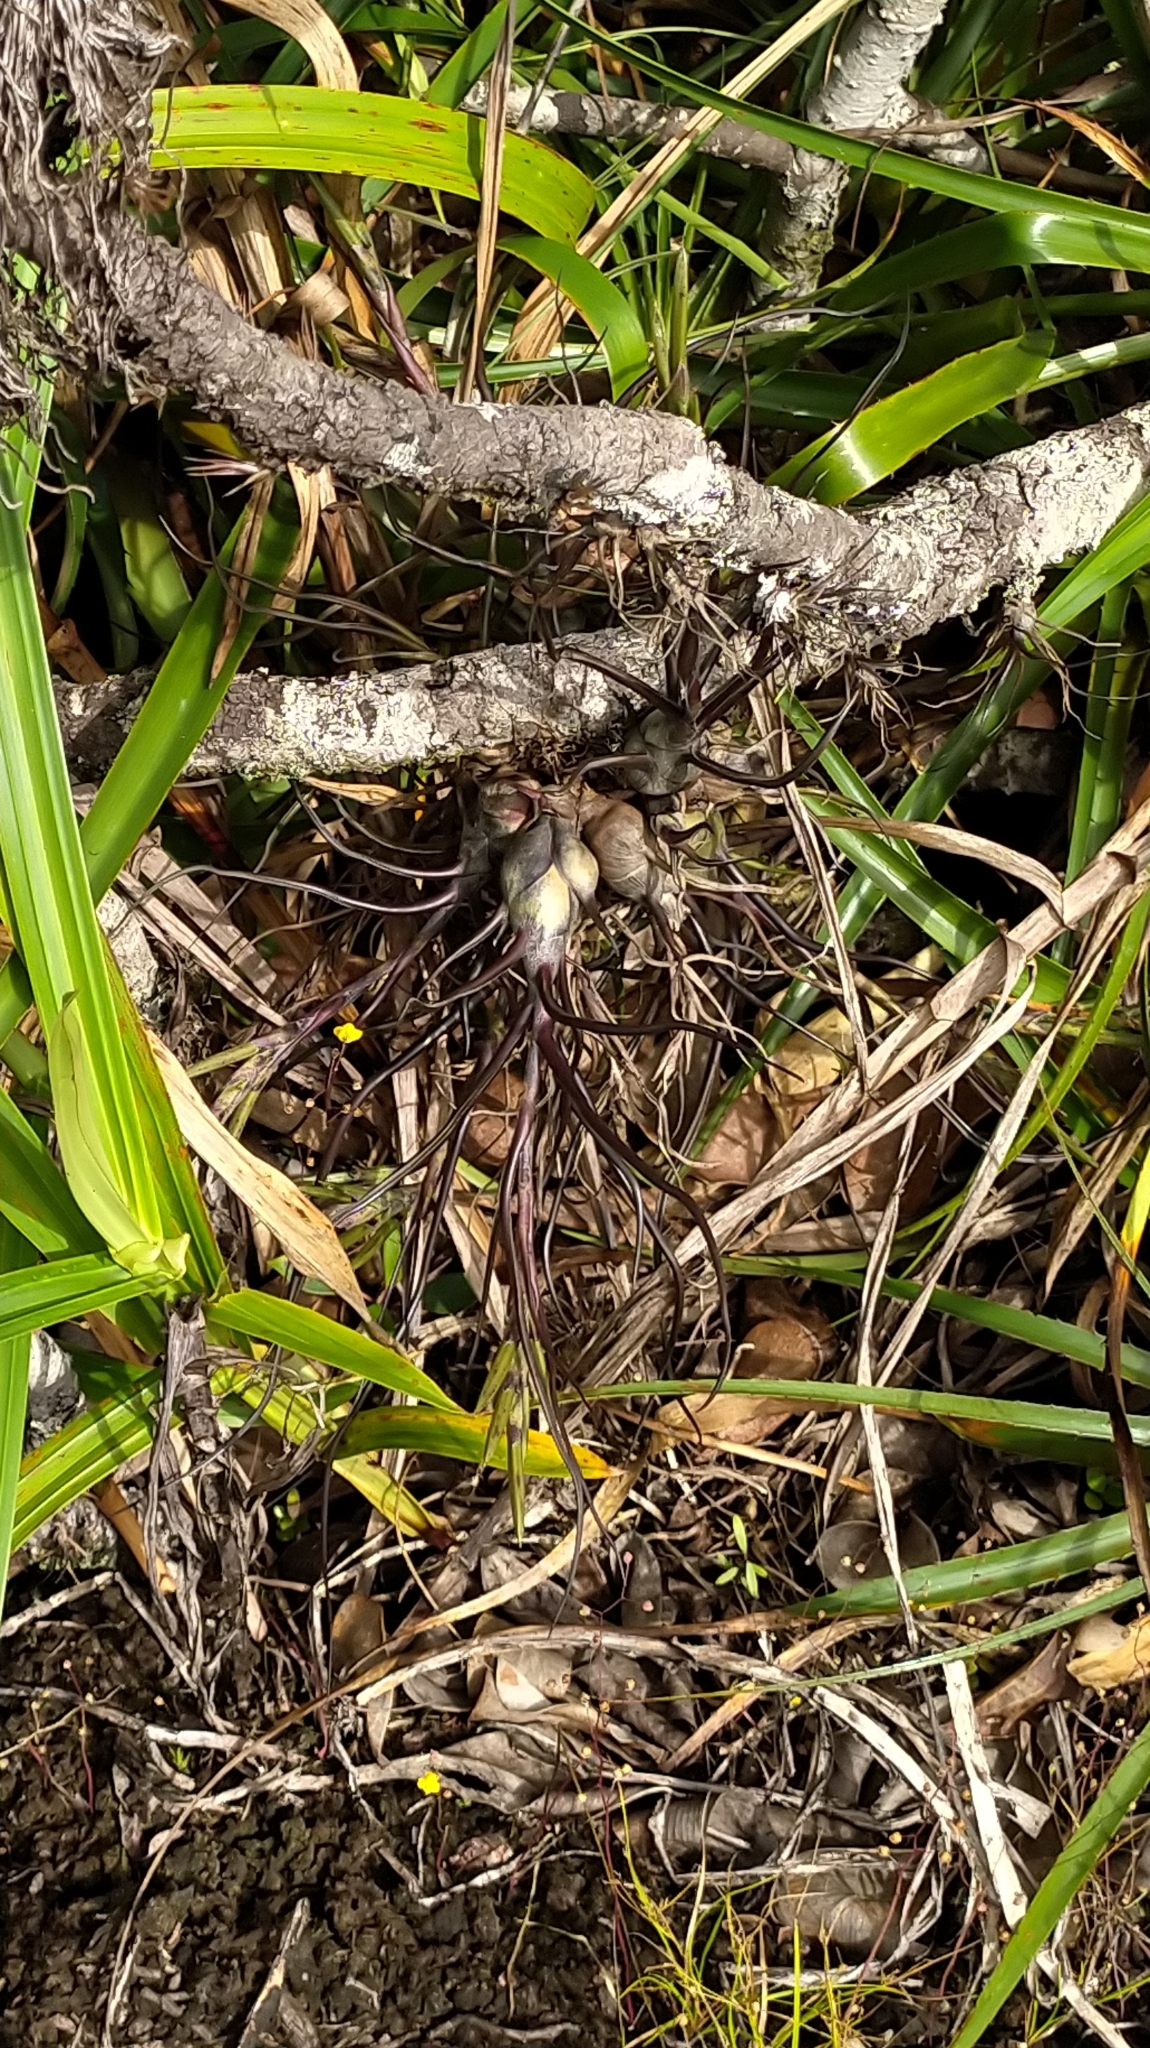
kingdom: Plantae
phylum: Tracheophyta
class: Liliopsida
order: Poales
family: Bromeliaceae
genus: Tillandsia
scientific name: Tillandsia bulbosa
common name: Bulbous airplant
